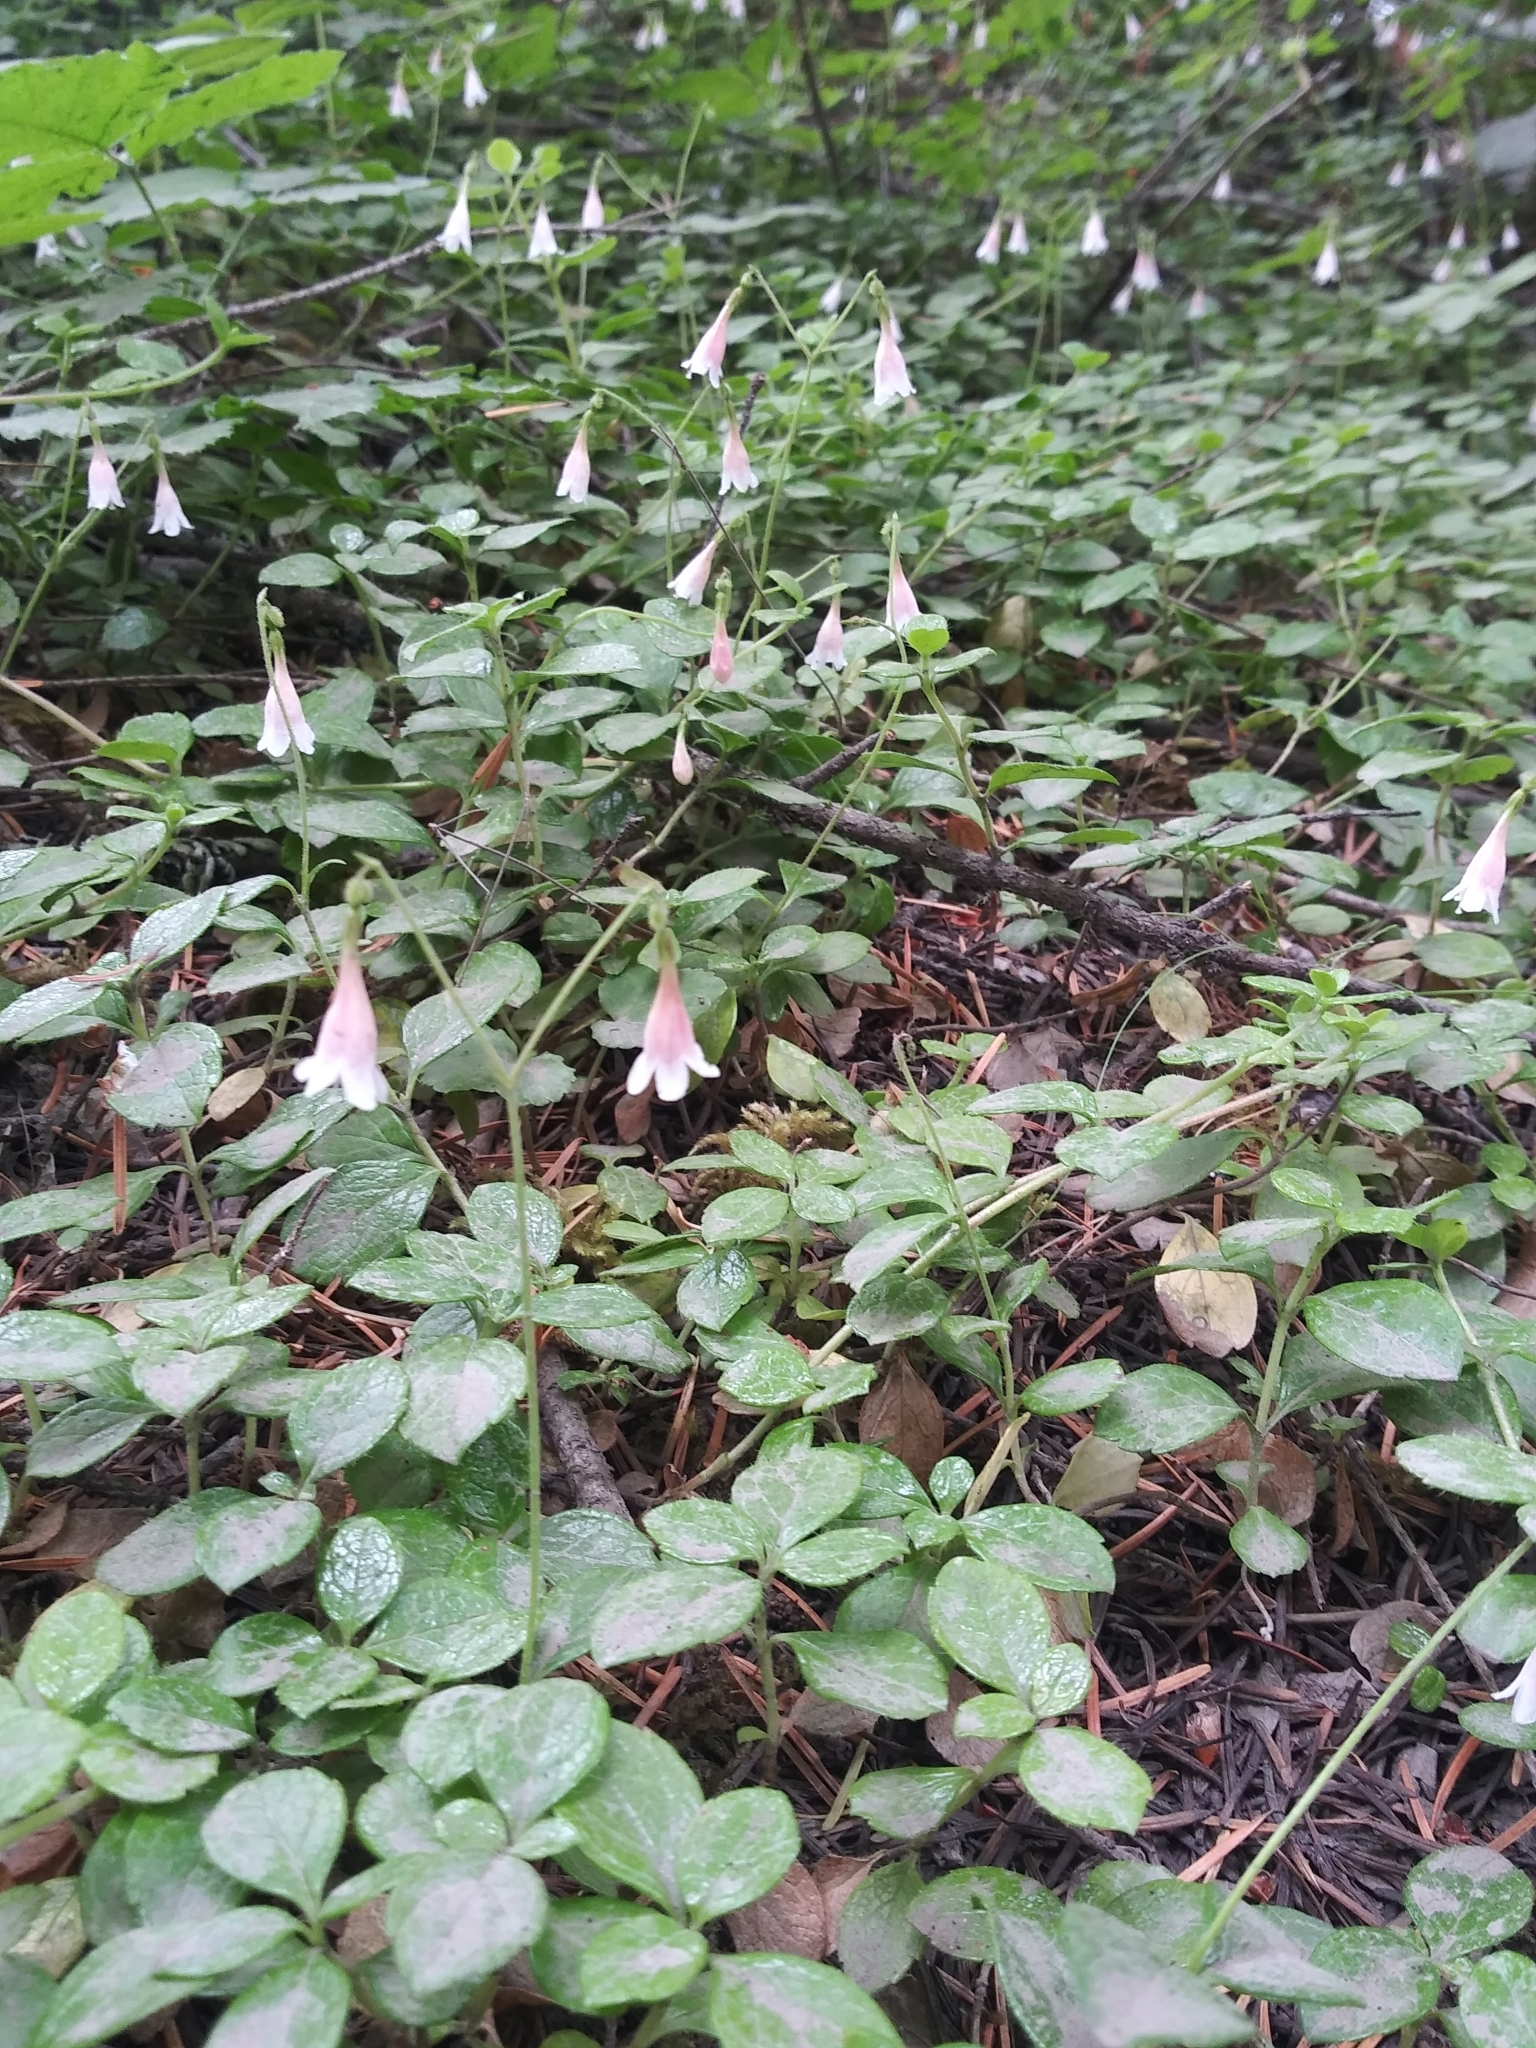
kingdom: Plantae
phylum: Tracheophyta
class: Magnoliopsida
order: Dipsacales
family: Caprifoliaceae
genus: Linnaea
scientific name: Linnaea borealis
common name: Twinflower
